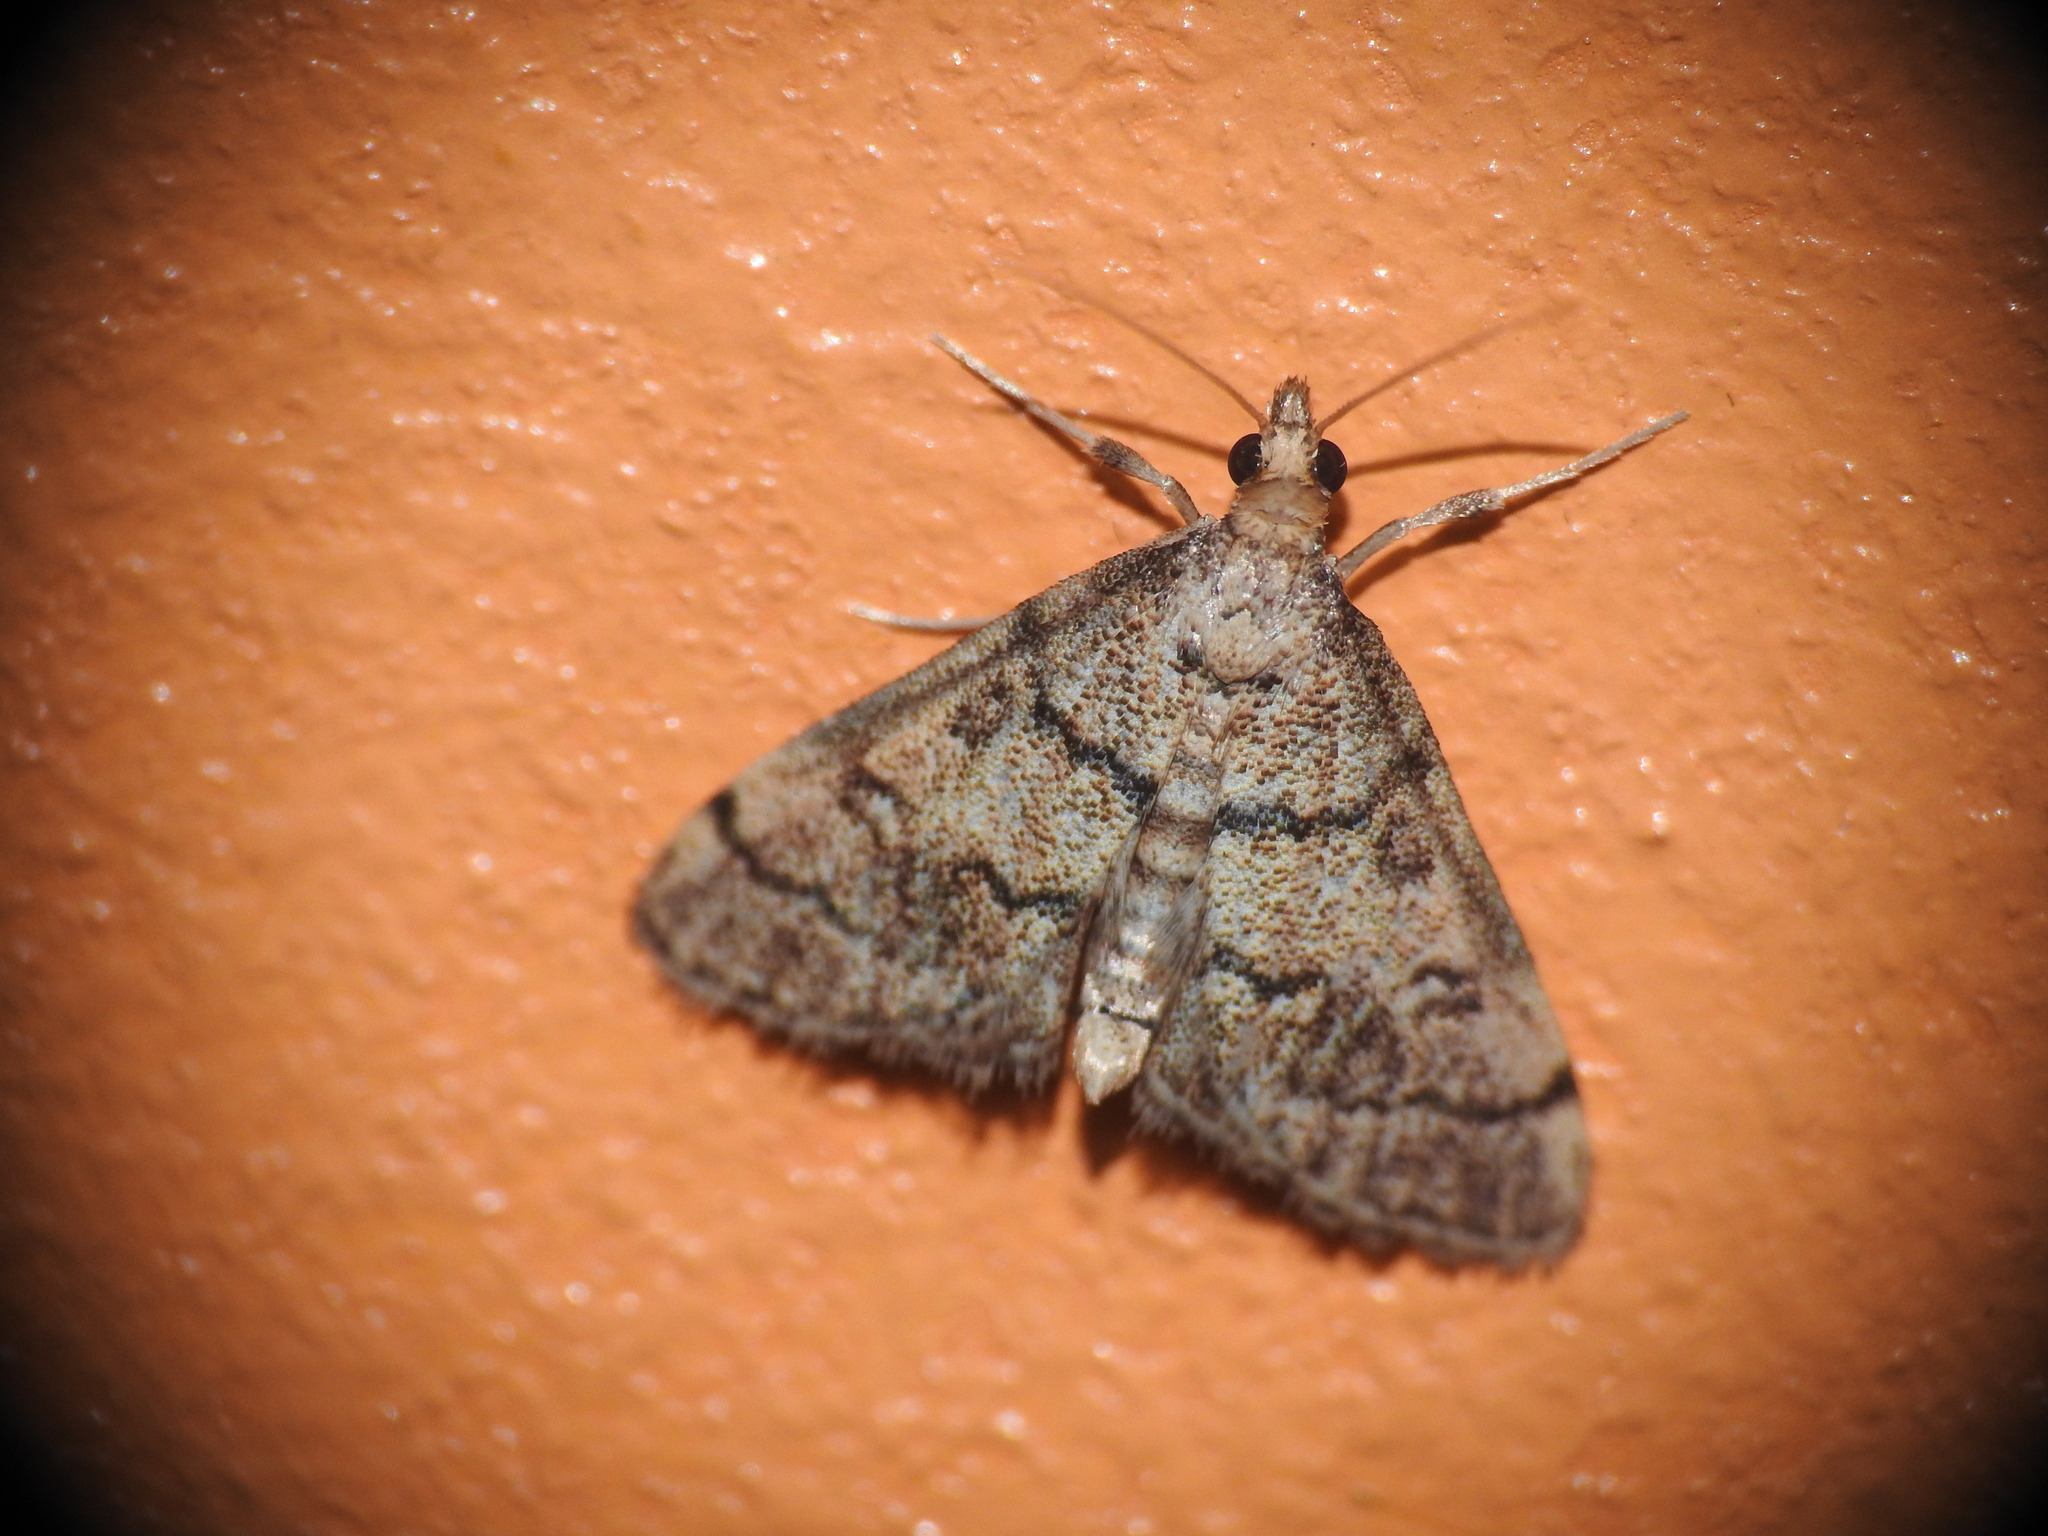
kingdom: Animalia
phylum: Arthropoda
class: Insecta
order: Lepidoptera
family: Crambidae
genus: Metasia
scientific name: Metasia cuencalis
